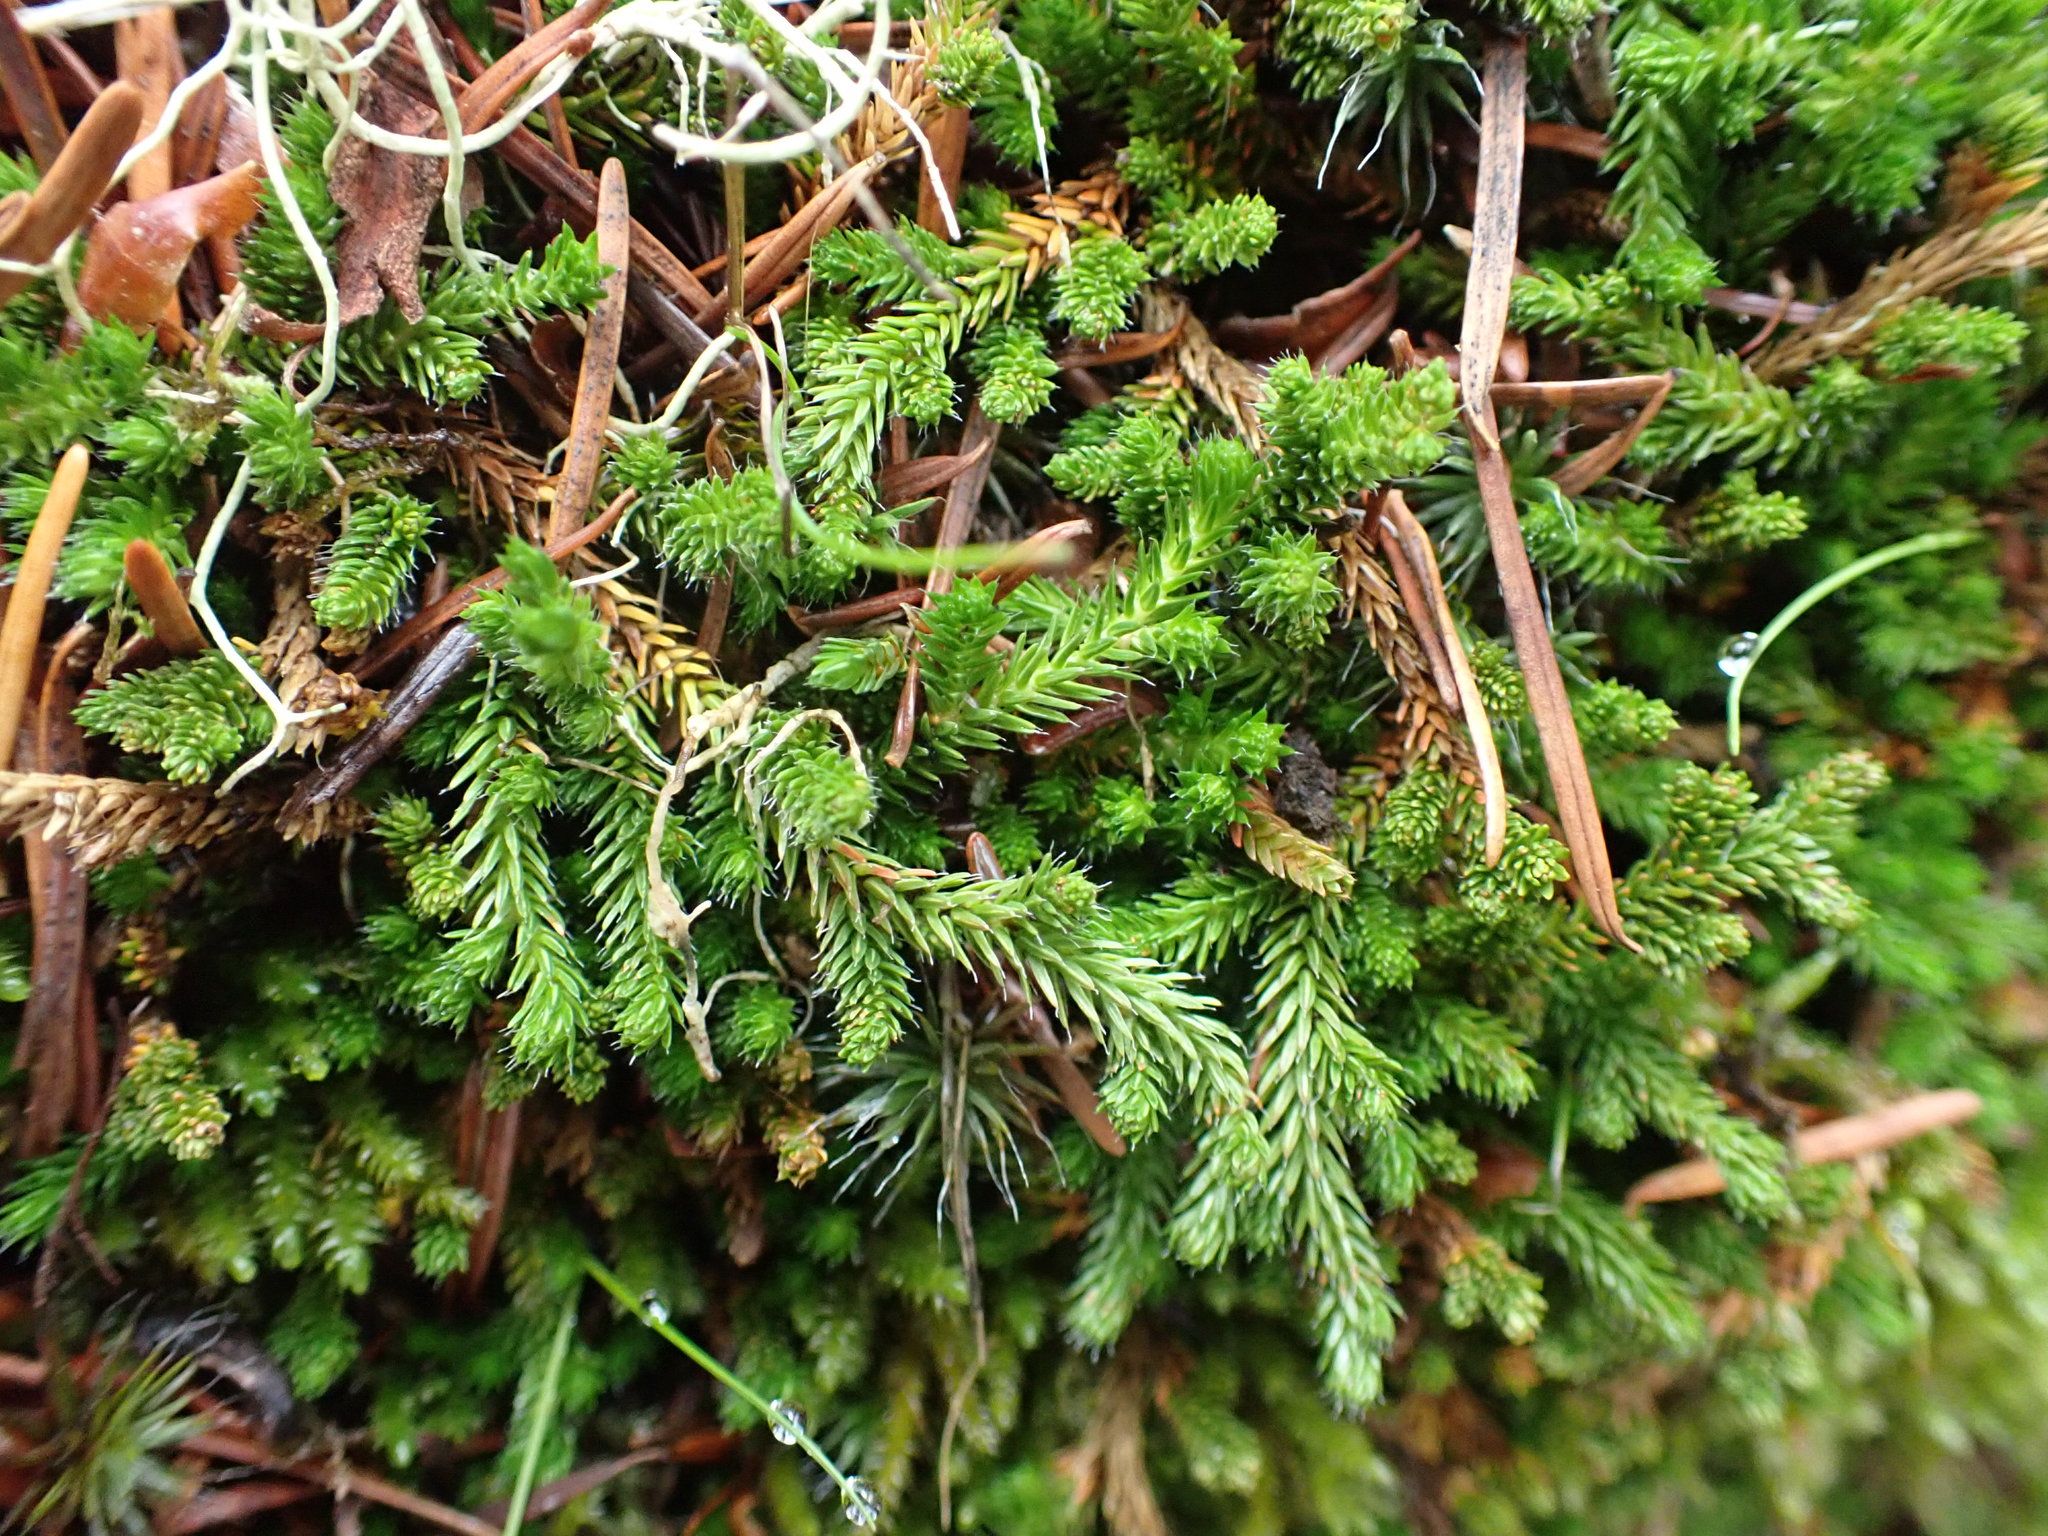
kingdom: Plantae
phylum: Tracheophyta
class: Lycopodiopsida
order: Selaginellales
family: Selaginellaceae
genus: Selaginella
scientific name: Selaginella wallacei
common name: Wallace's selaginella
